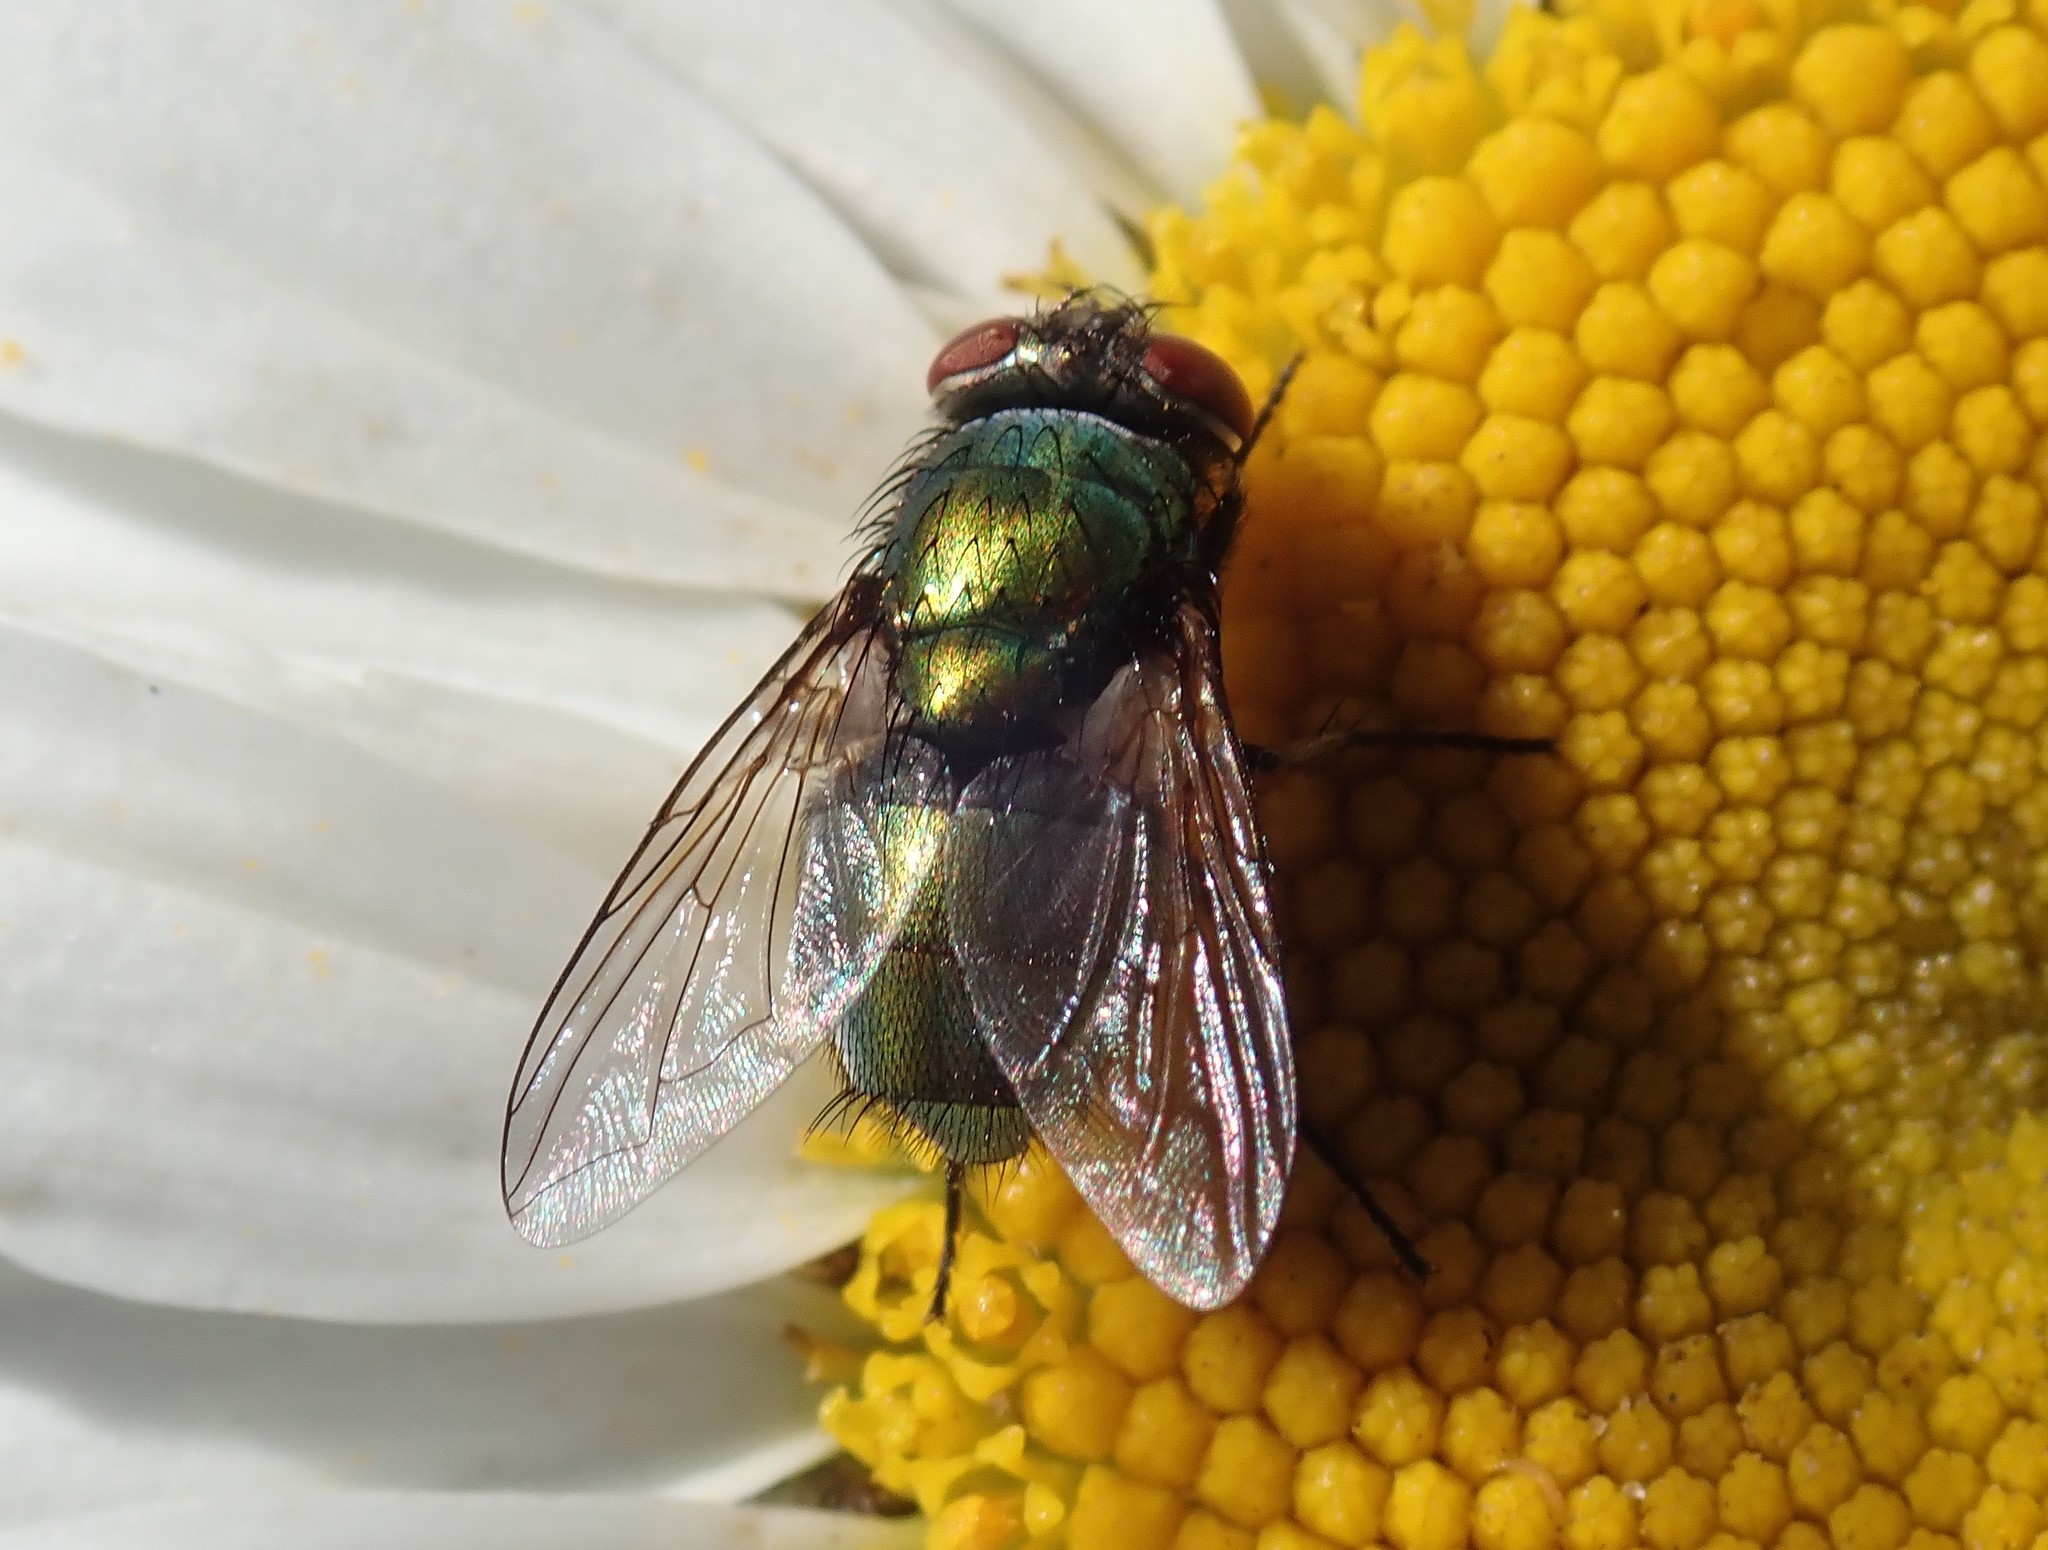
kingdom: Animalia
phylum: Arthropoda
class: Insecta
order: Diptera
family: Calliphoridae
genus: Lucilia
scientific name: Lucilia sericata
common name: Blow fly
